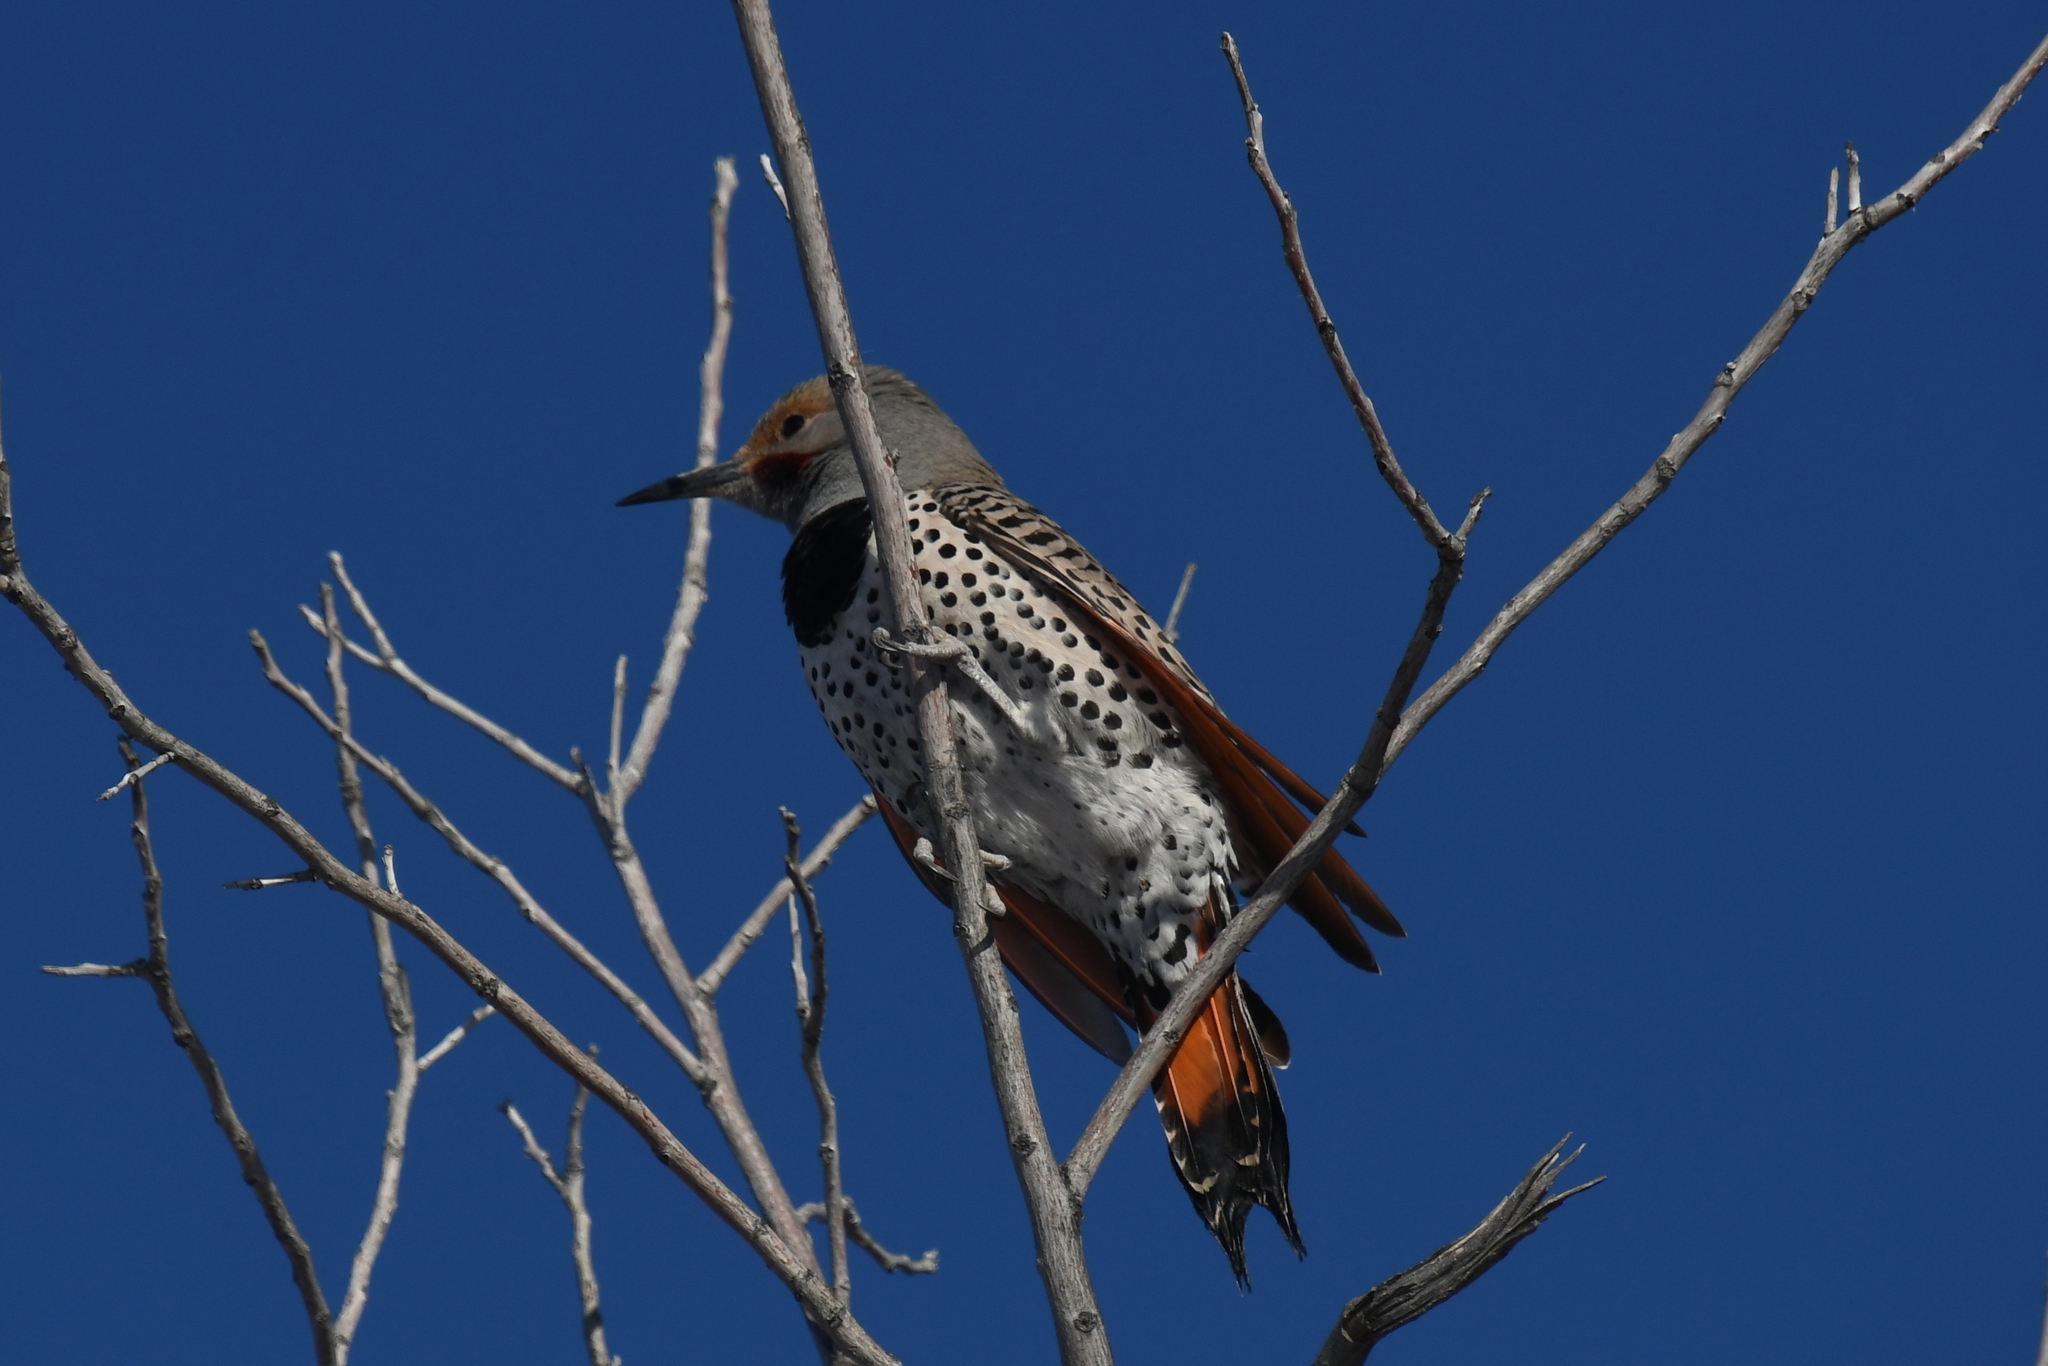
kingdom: Animalia
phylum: Chordata
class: Aves
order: Piciformes
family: Picidae
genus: Colaptes
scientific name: Colaptes auratus
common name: Northern flicker
